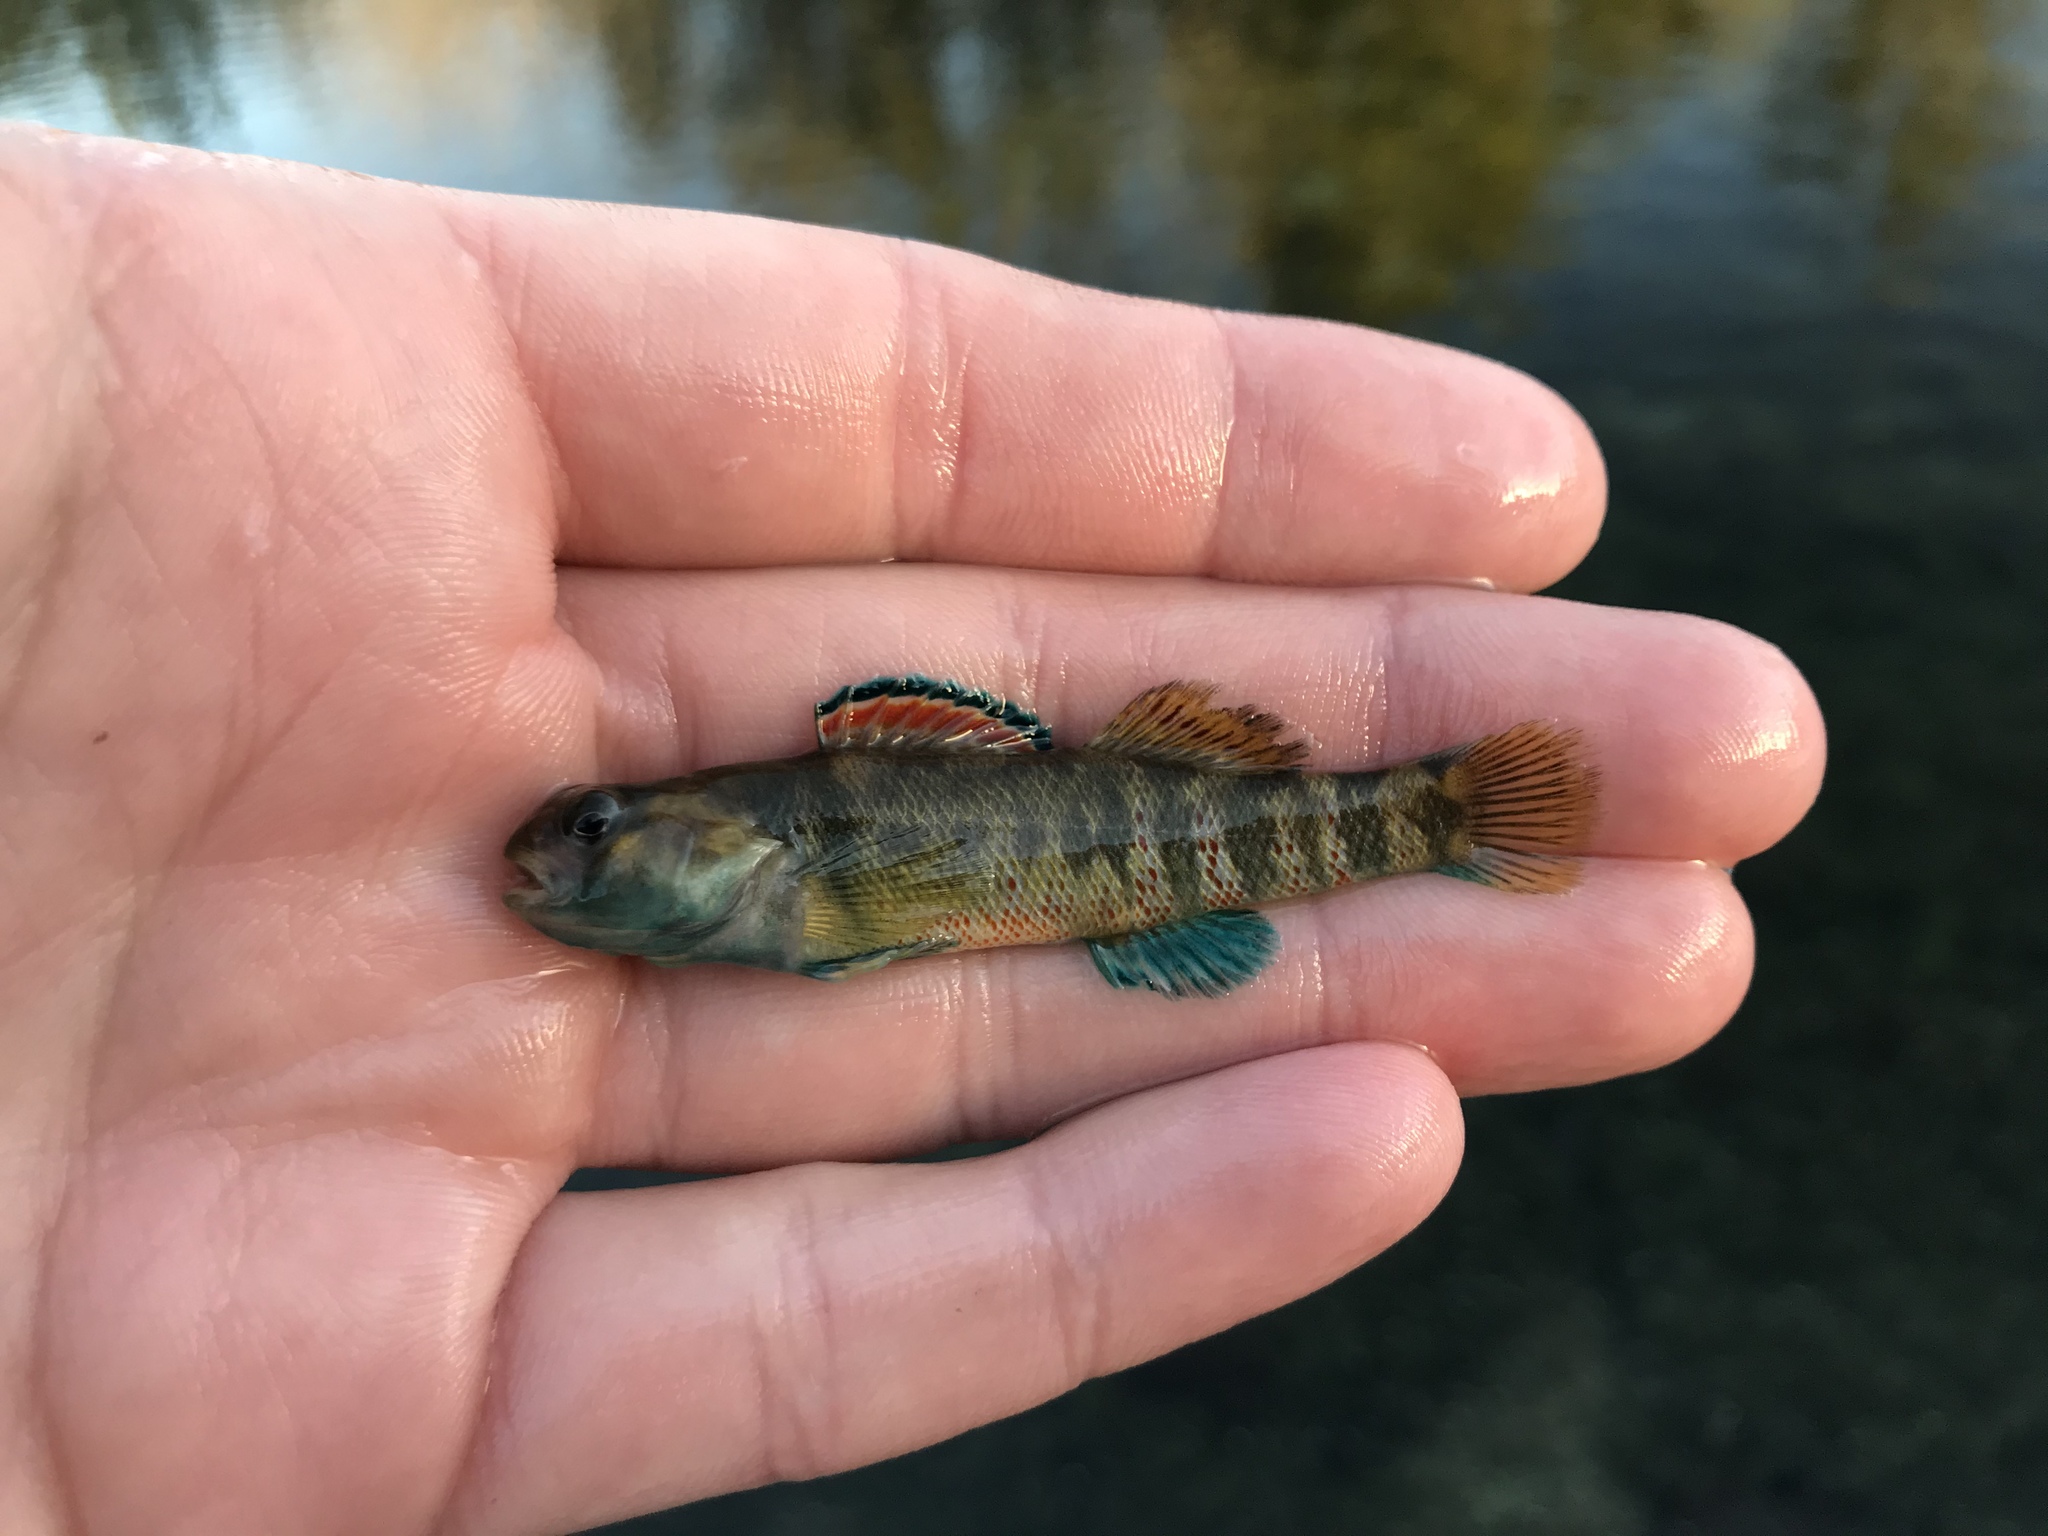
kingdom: Animalia
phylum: Chordata
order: Perciformes
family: Percidae
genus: Etheostoma
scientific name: Etheostoma lepidum
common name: Greenthroat darter
